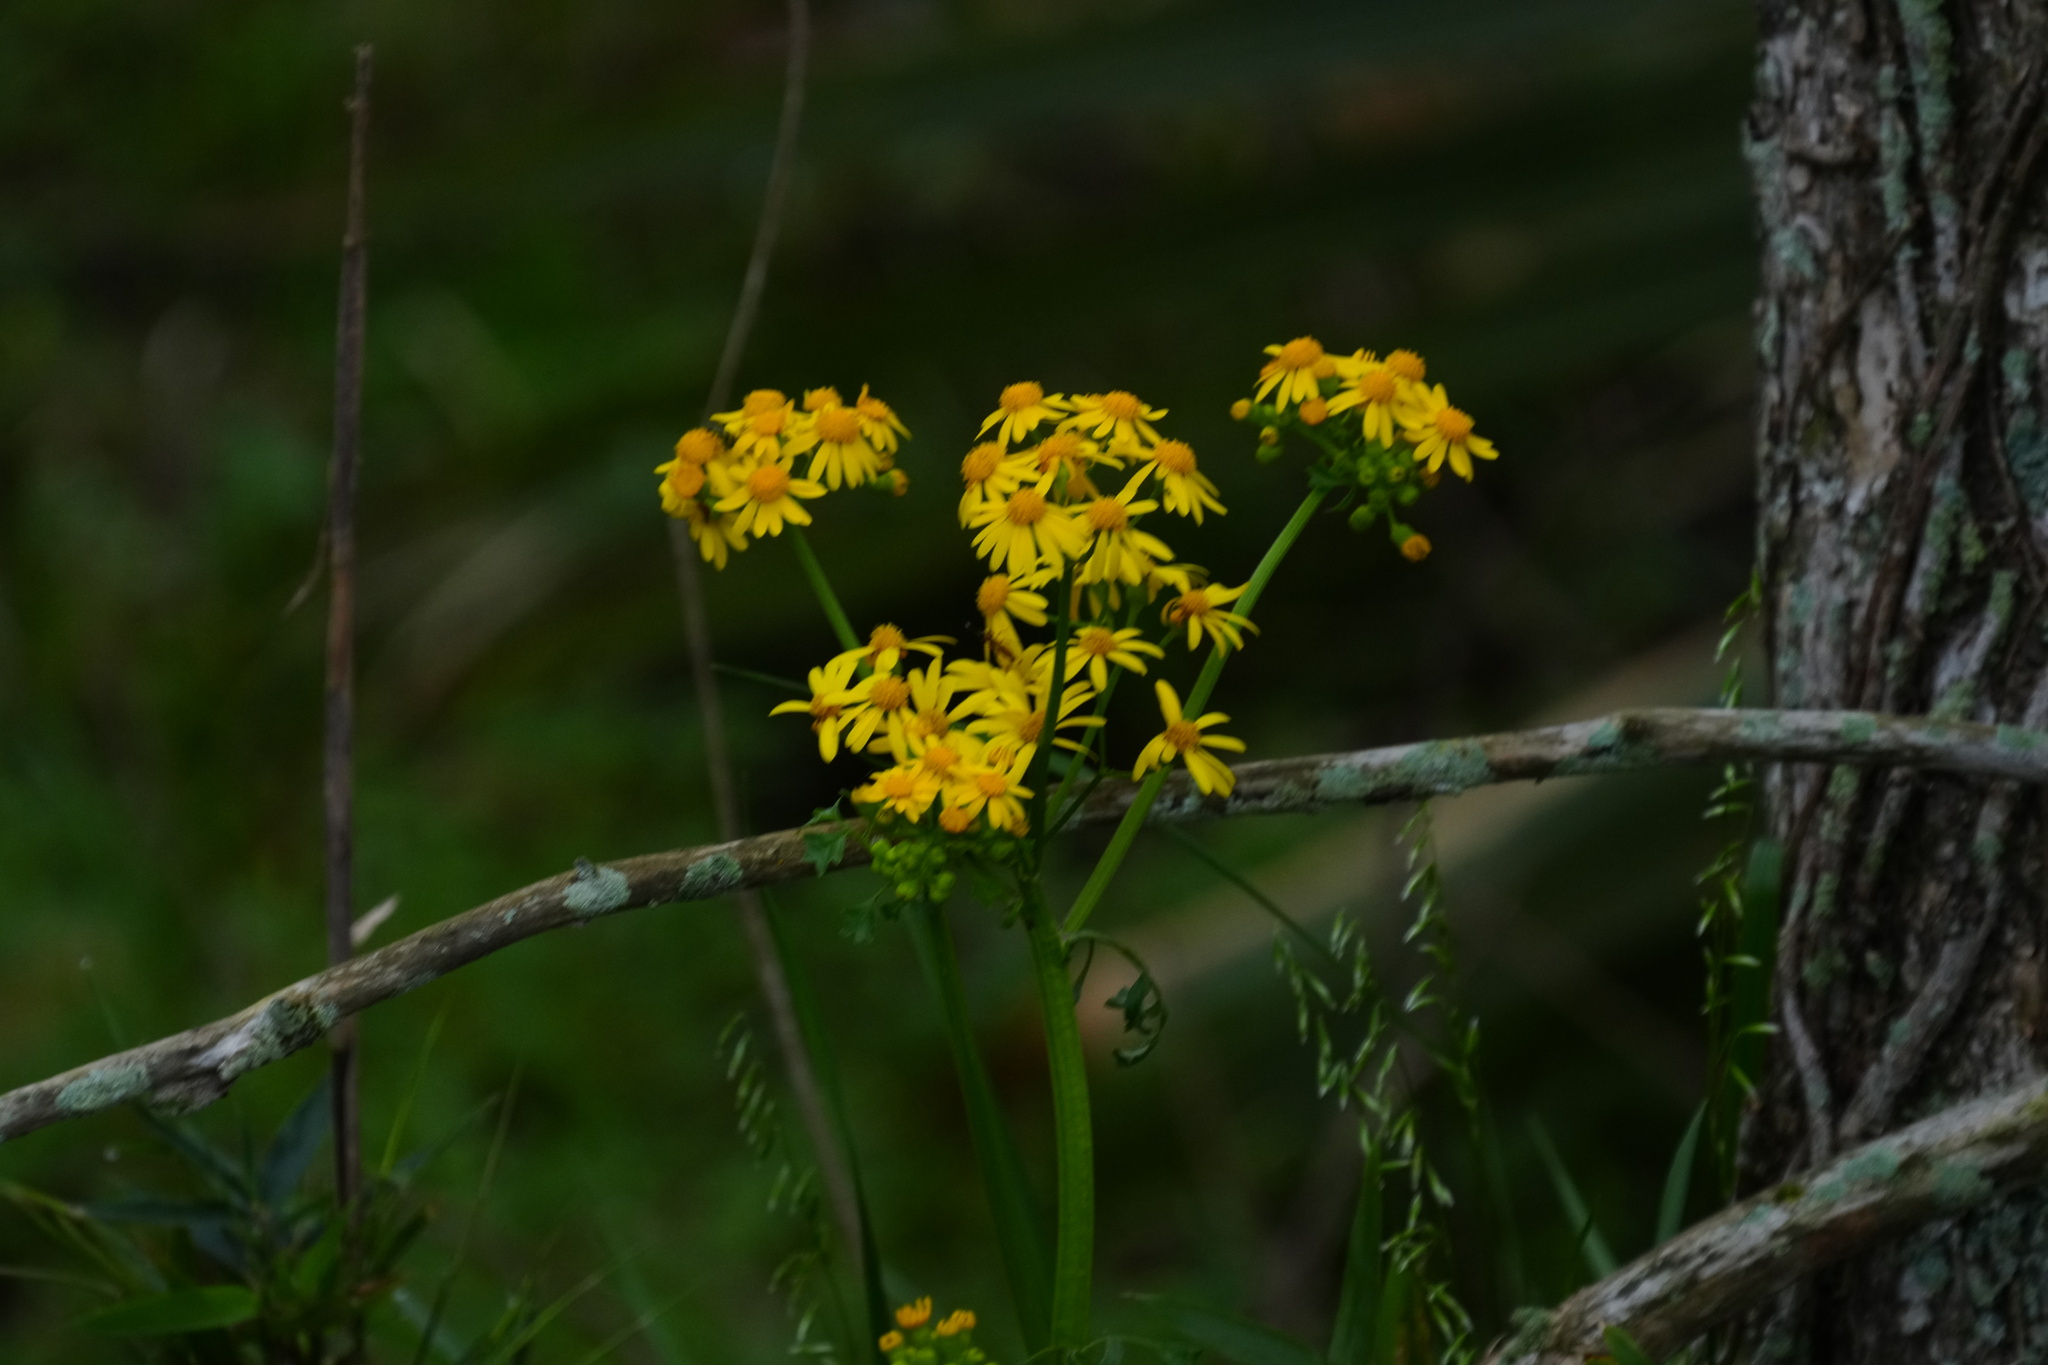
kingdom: Plantae
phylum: Tracheophyta
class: Magnoliopsida
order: Asterales
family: Asteraceae
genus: Packera
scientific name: Packera glabella
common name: Butterweed
